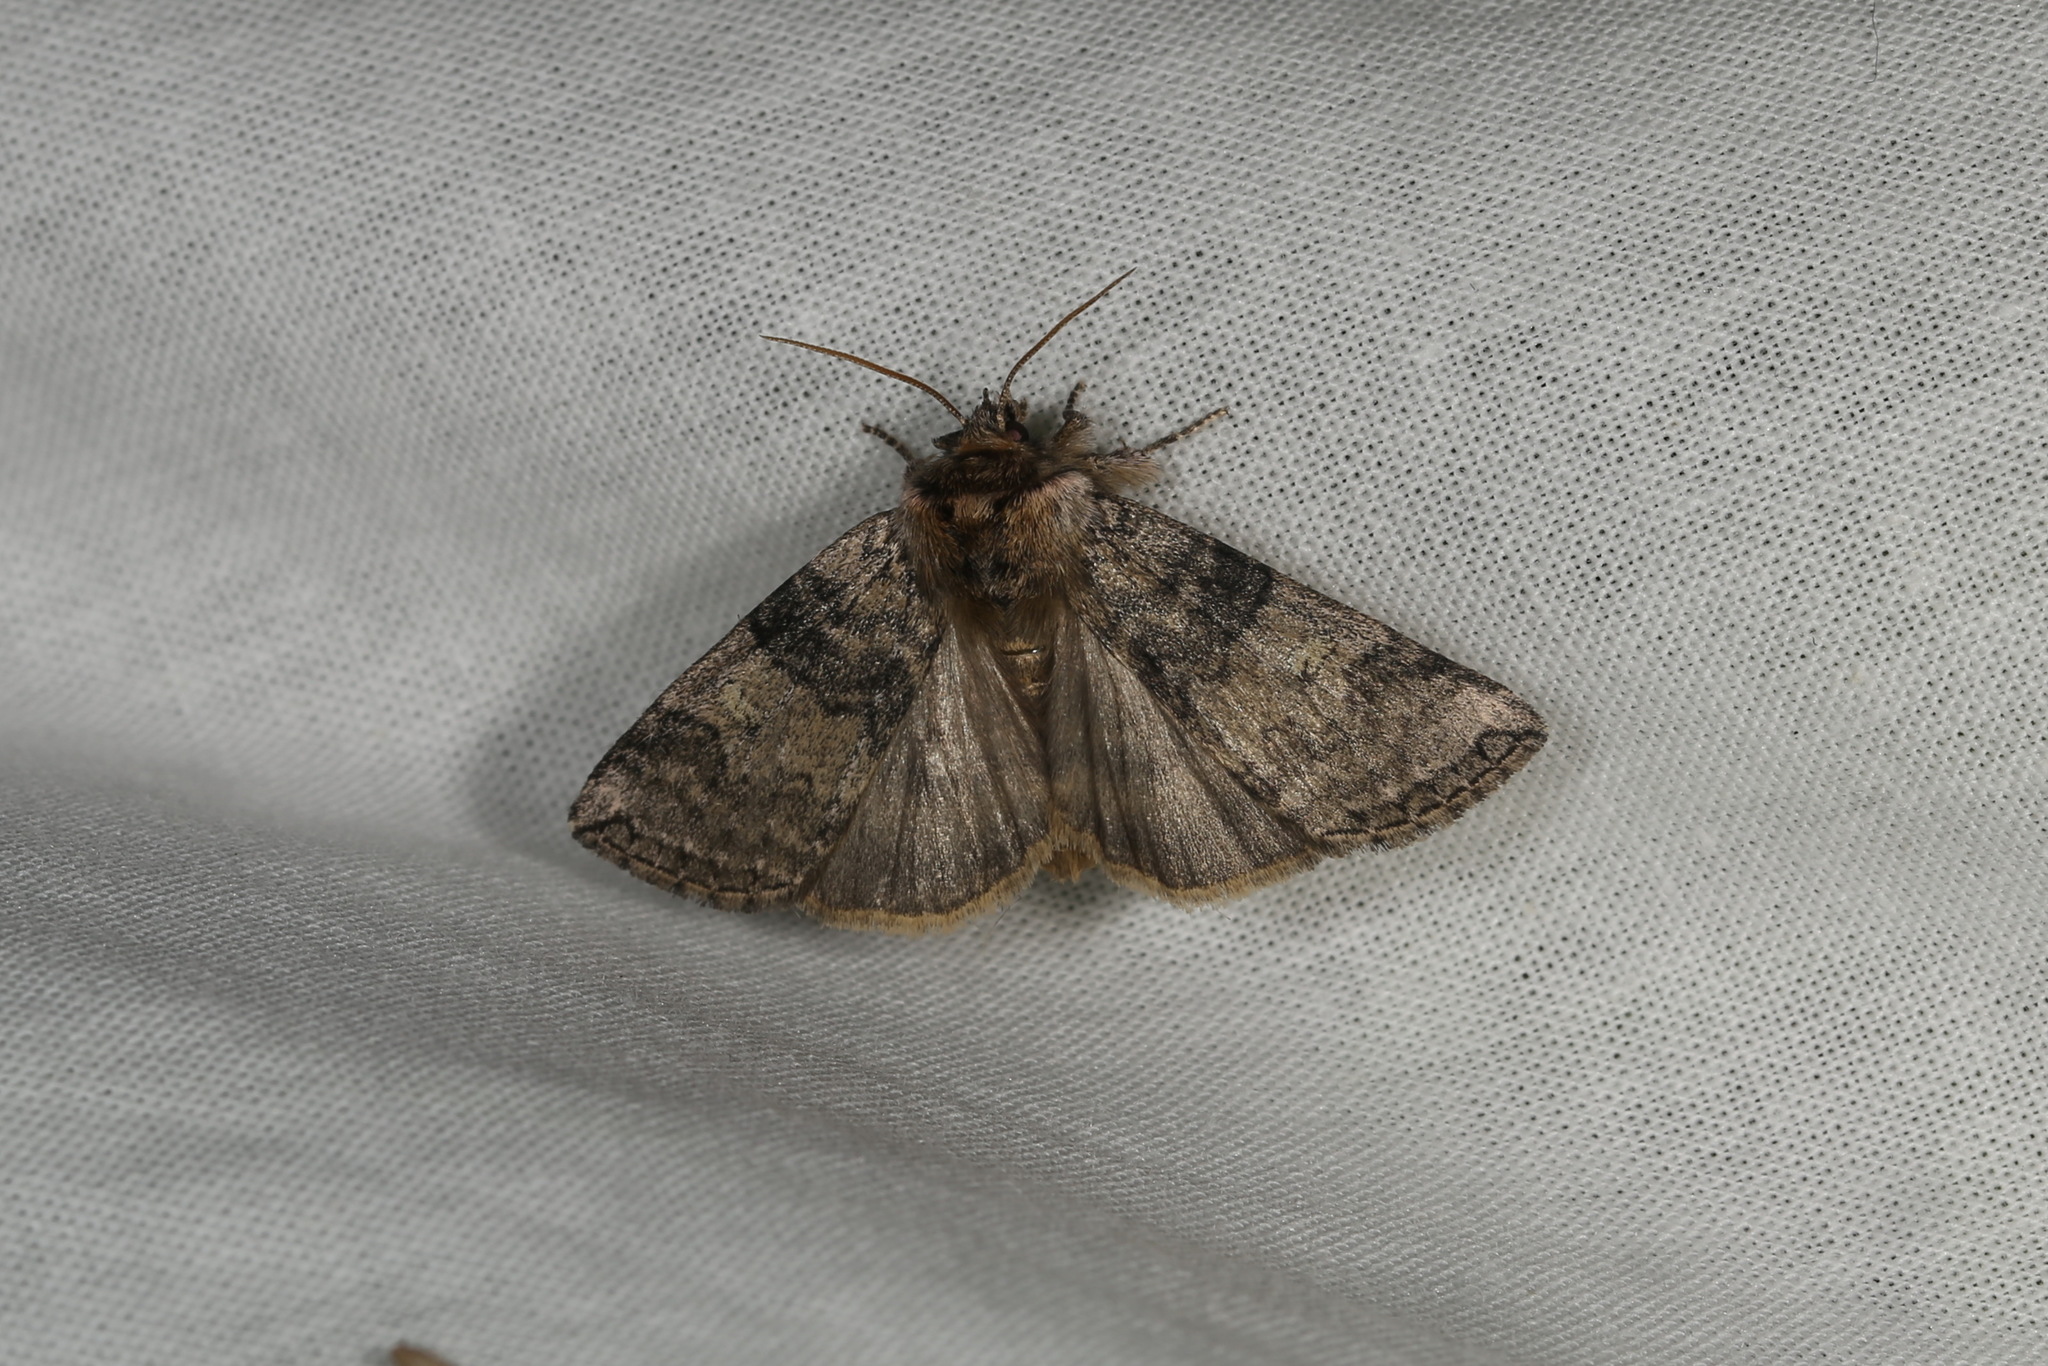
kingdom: Animalia
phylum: Arthropoda
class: Insecta
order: Lepidoptera
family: Drepanidae
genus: Tethea
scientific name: Tethea or
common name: Poplar lutestring
